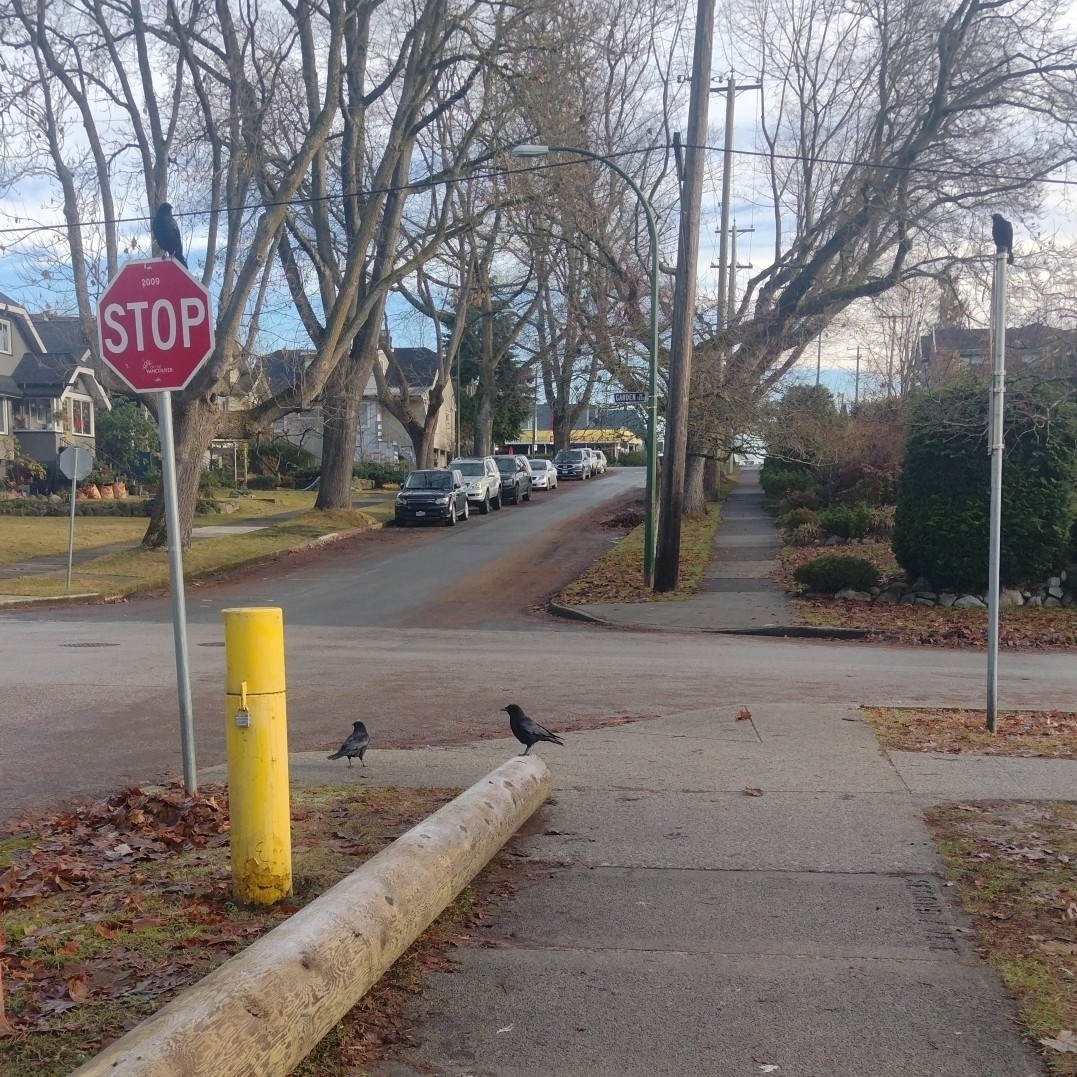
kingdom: Animalia
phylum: Chordata
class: Aves
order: Passeriformes
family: Corvidae
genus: Corvus
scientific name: Corvus brachyrhynchos
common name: American crow
